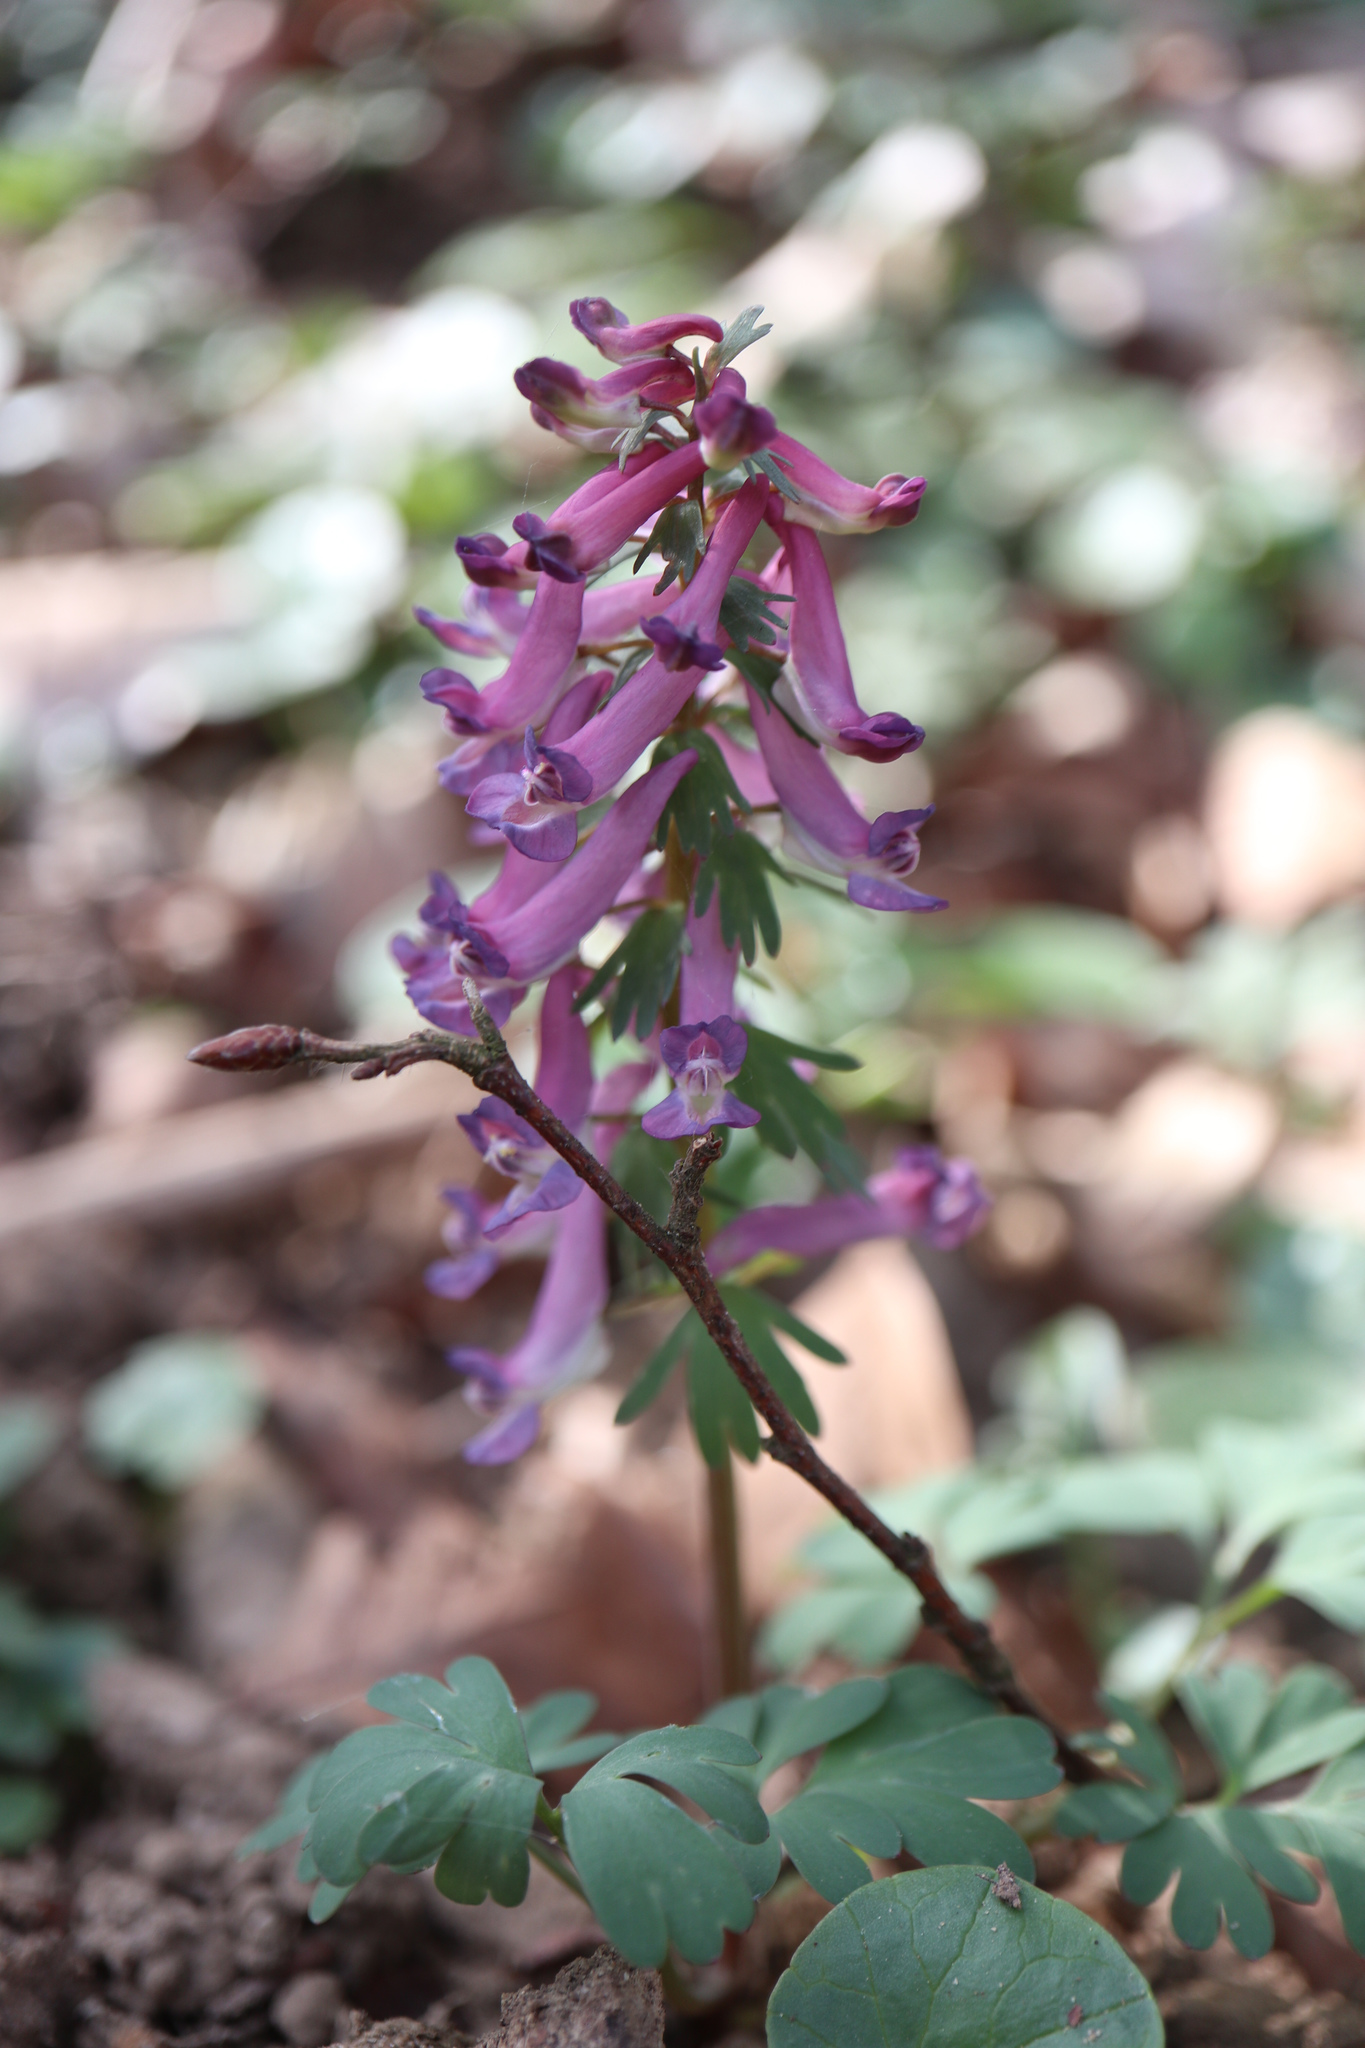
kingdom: Plantae
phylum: Tracheophyta
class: Magnoliopsida
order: Ranunculales
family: Papaveraceae
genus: Corydalis
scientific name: Corydalis solida
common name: Bird-in-a-bush
